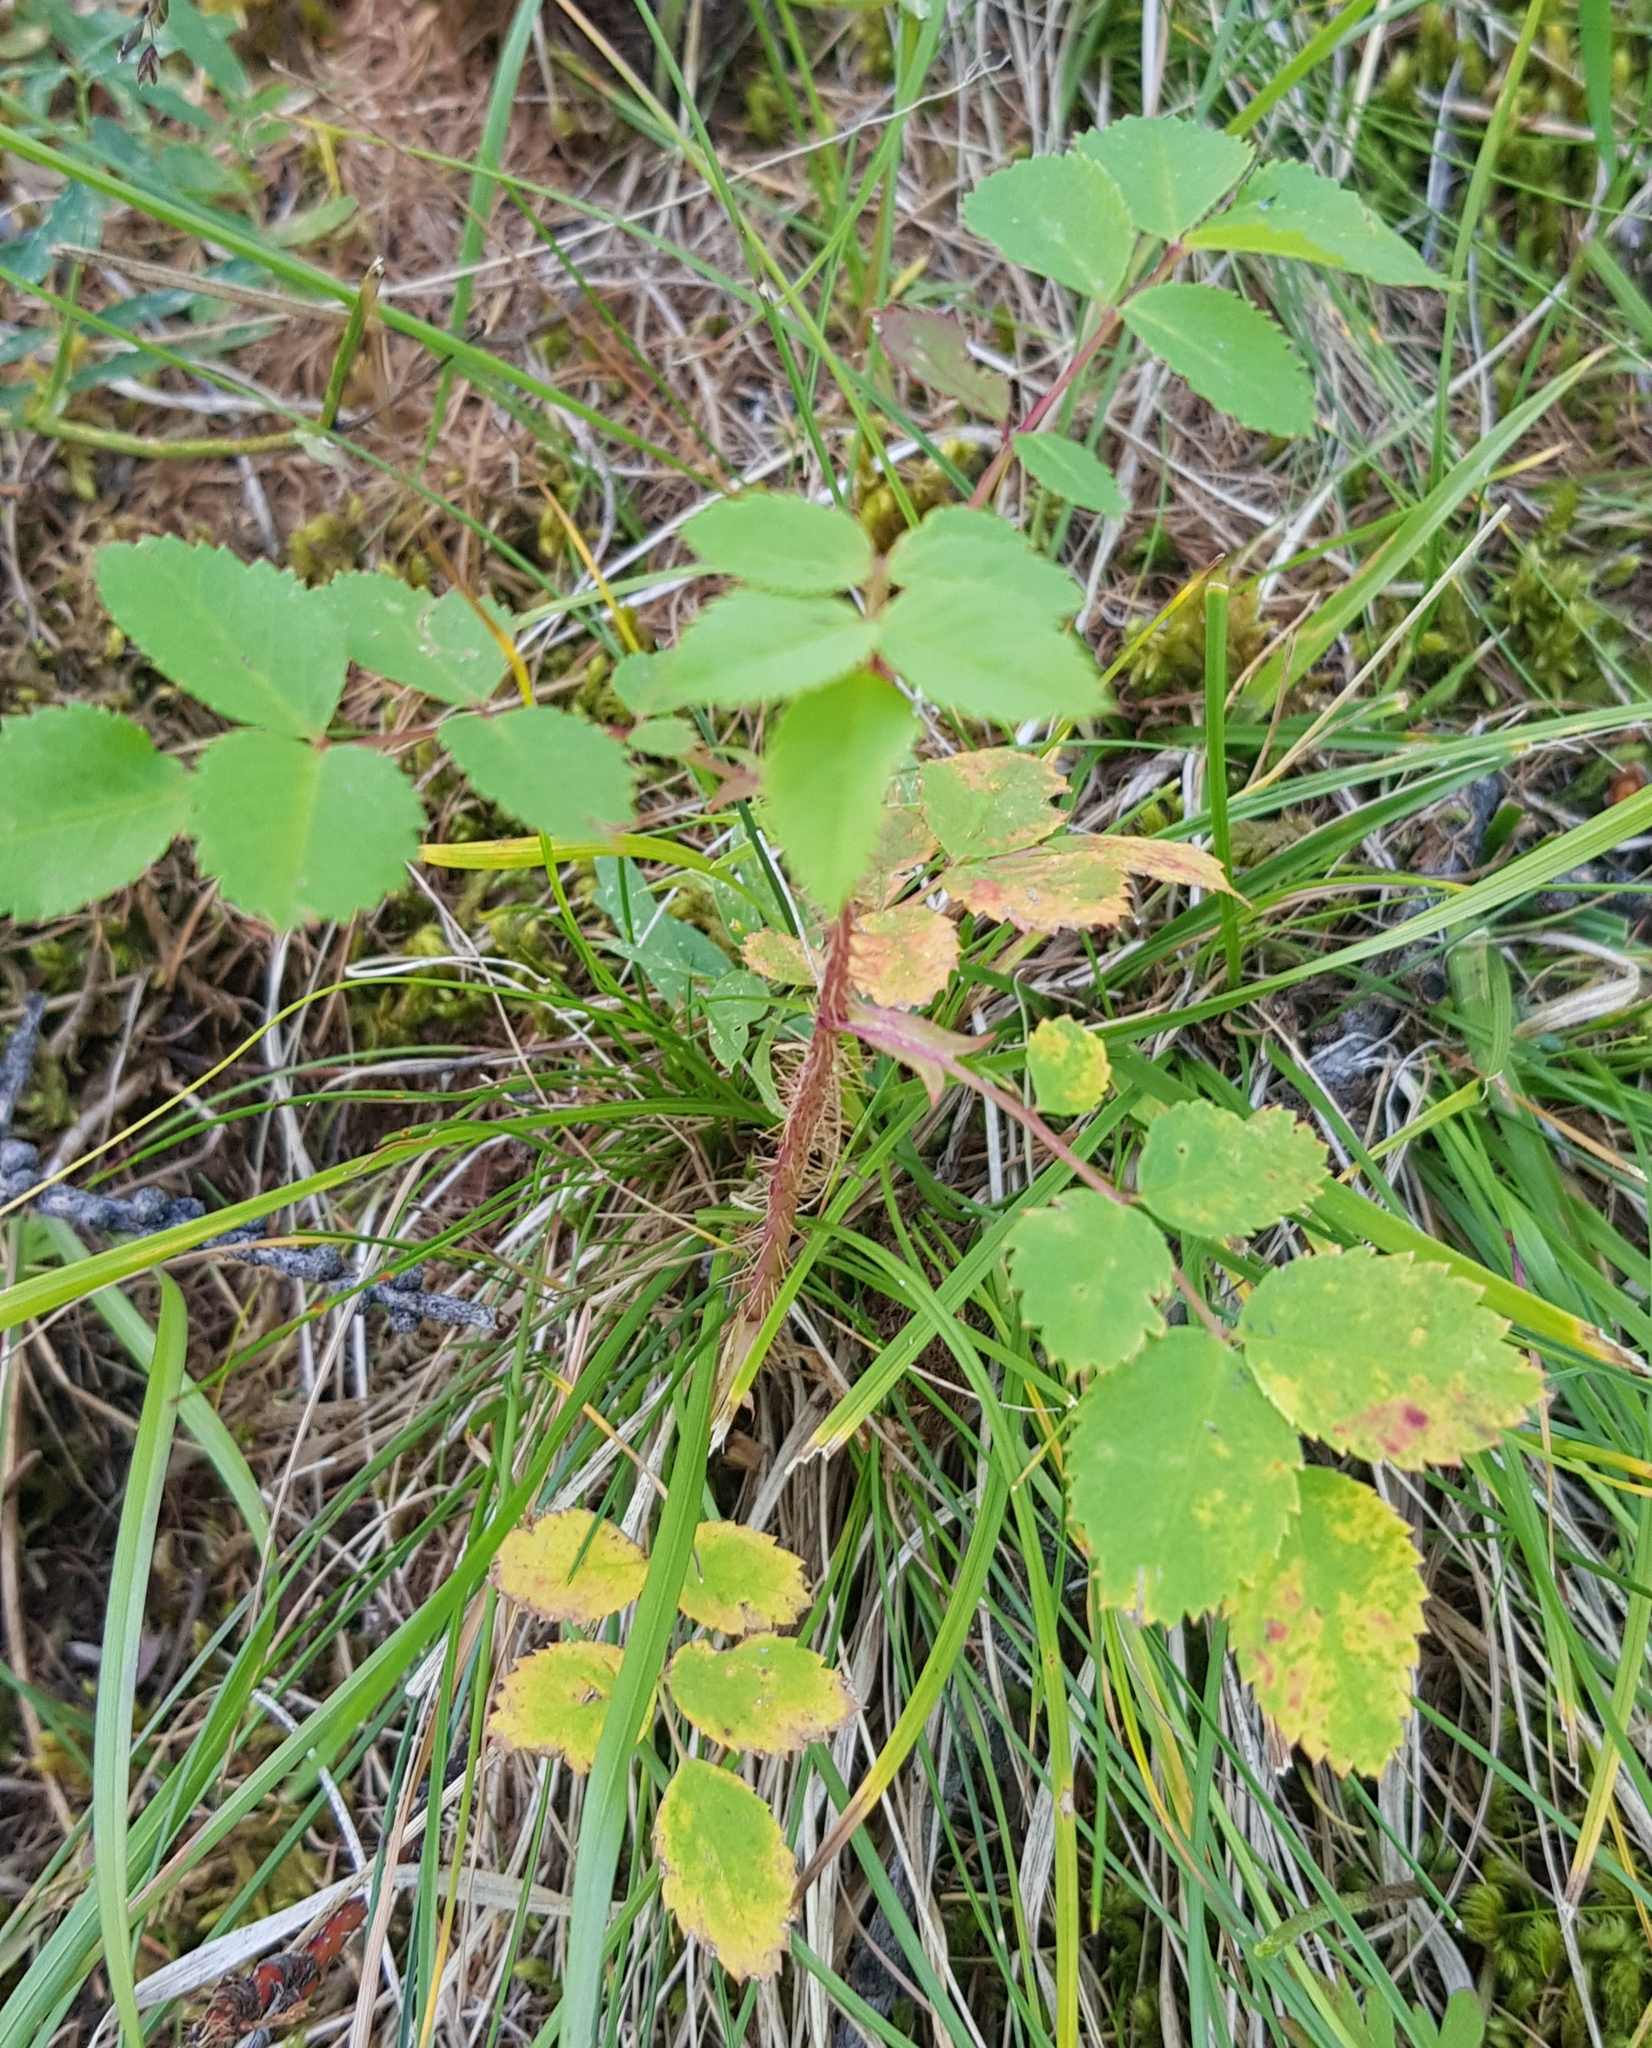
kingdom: Plantae
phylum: Tracheophyta
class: Magnoliopsida
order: Rosales
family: Rosaceae
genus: Rosa
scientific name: Rosa acicularis
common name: Prickly rose
